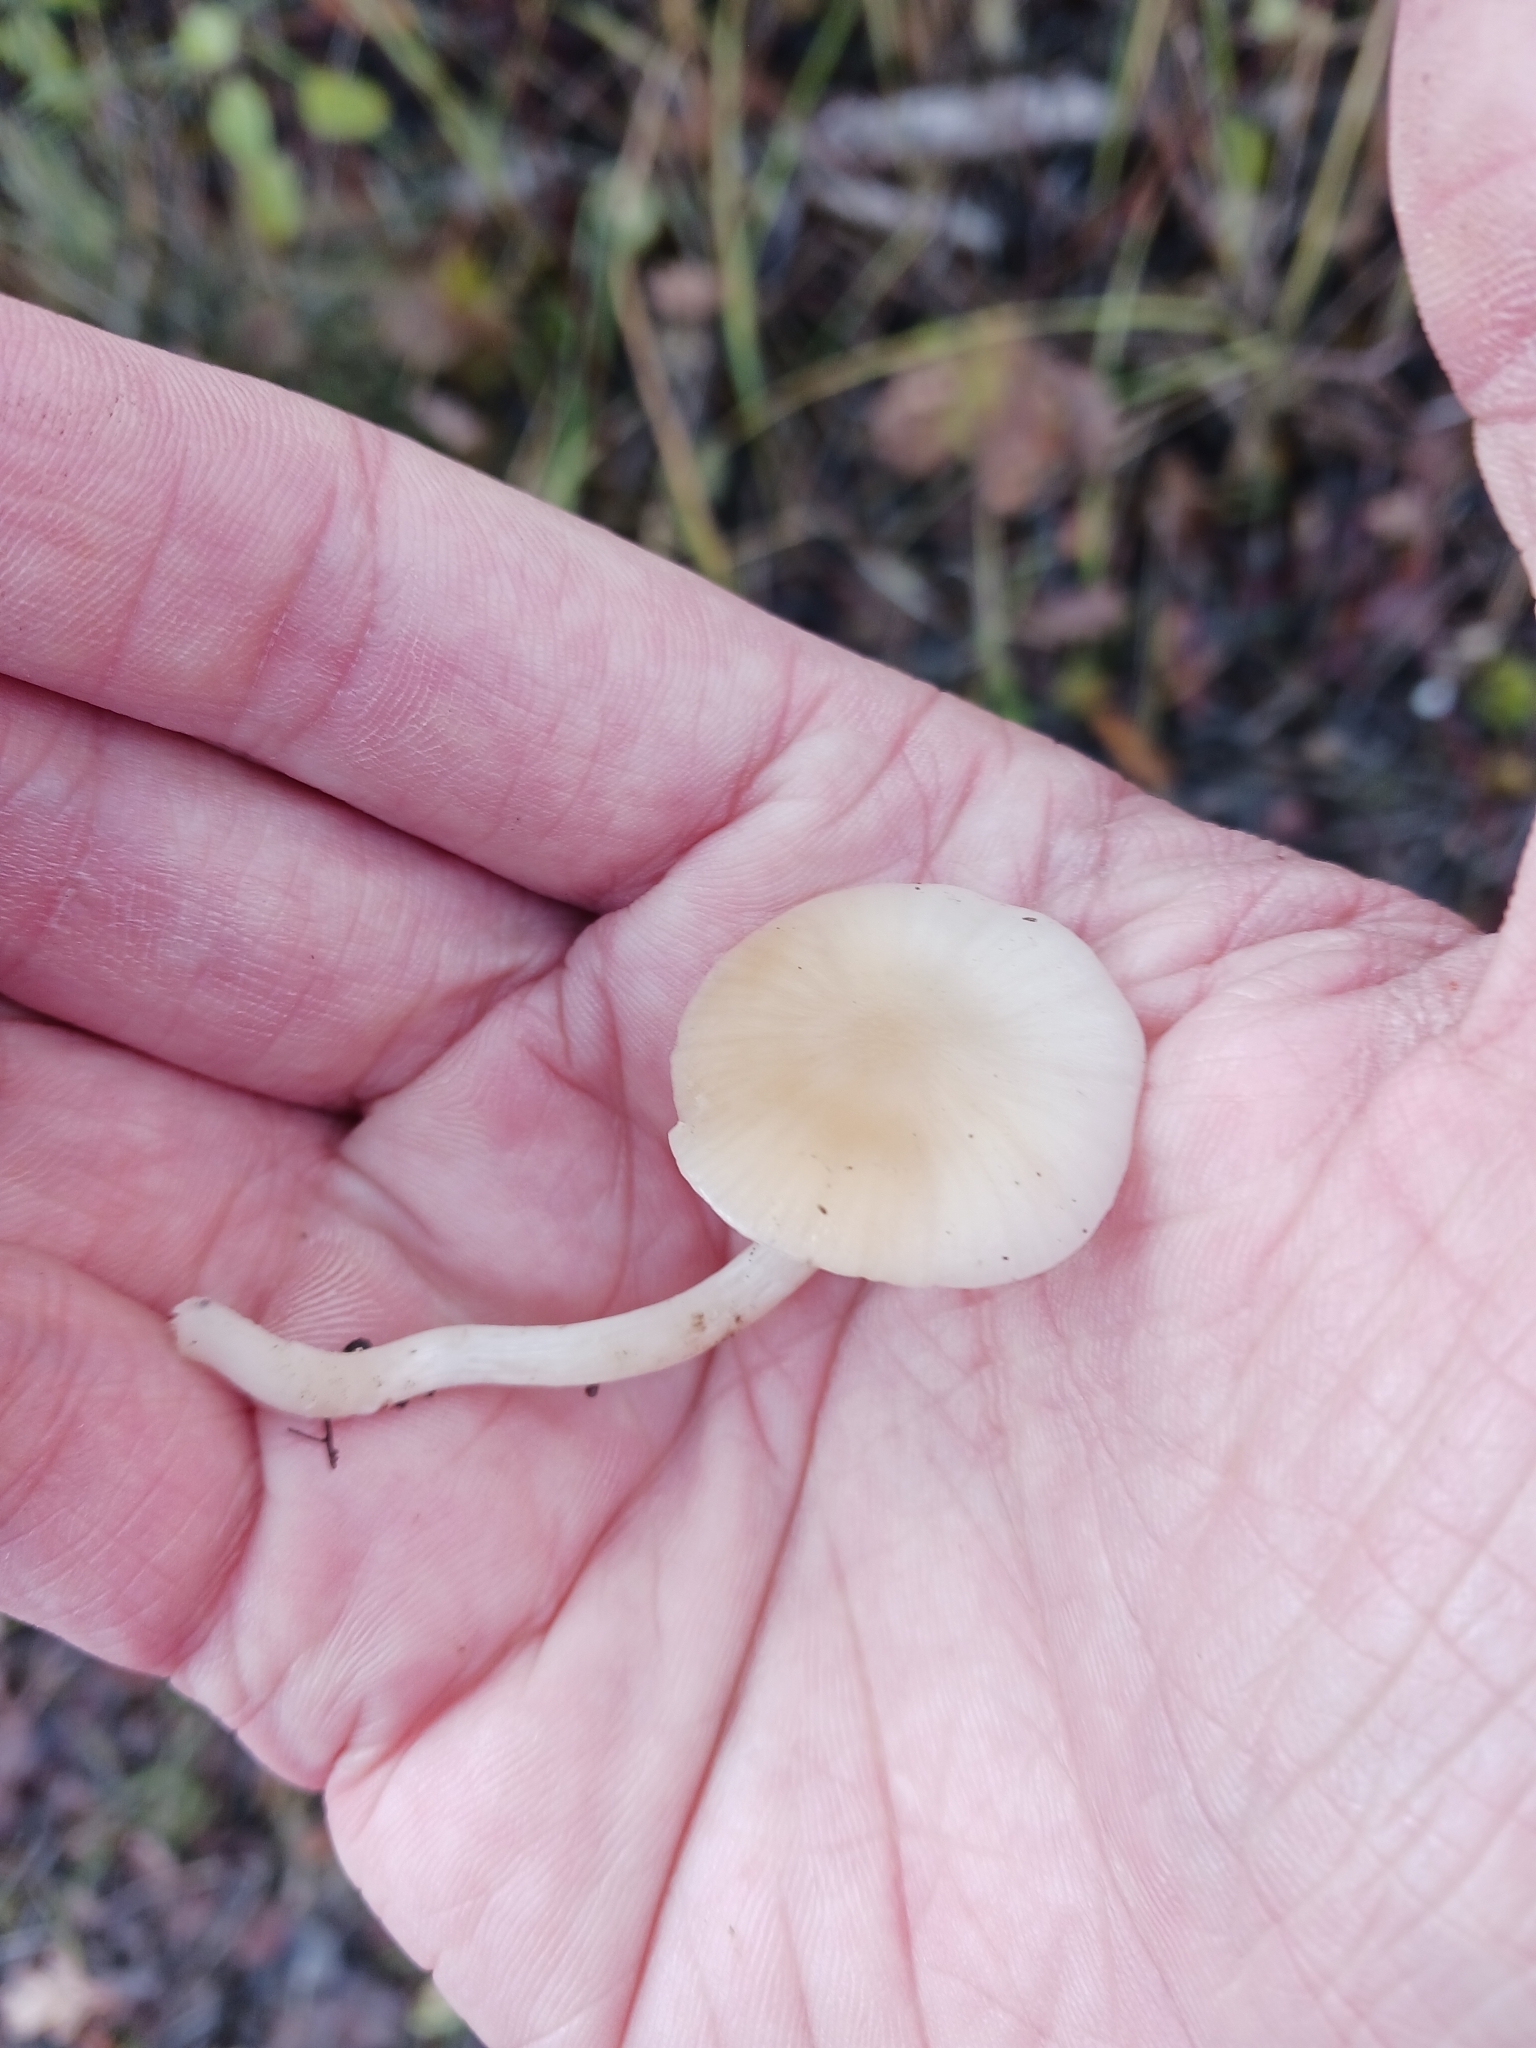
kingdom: Fungi
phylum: Basidiomycota
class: Agaricomycetes
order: Agaricales
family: Hygrophoraceae
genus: Cuphophyllus
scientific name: Cuphophyllus virgineus
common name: Snowy waxcap
